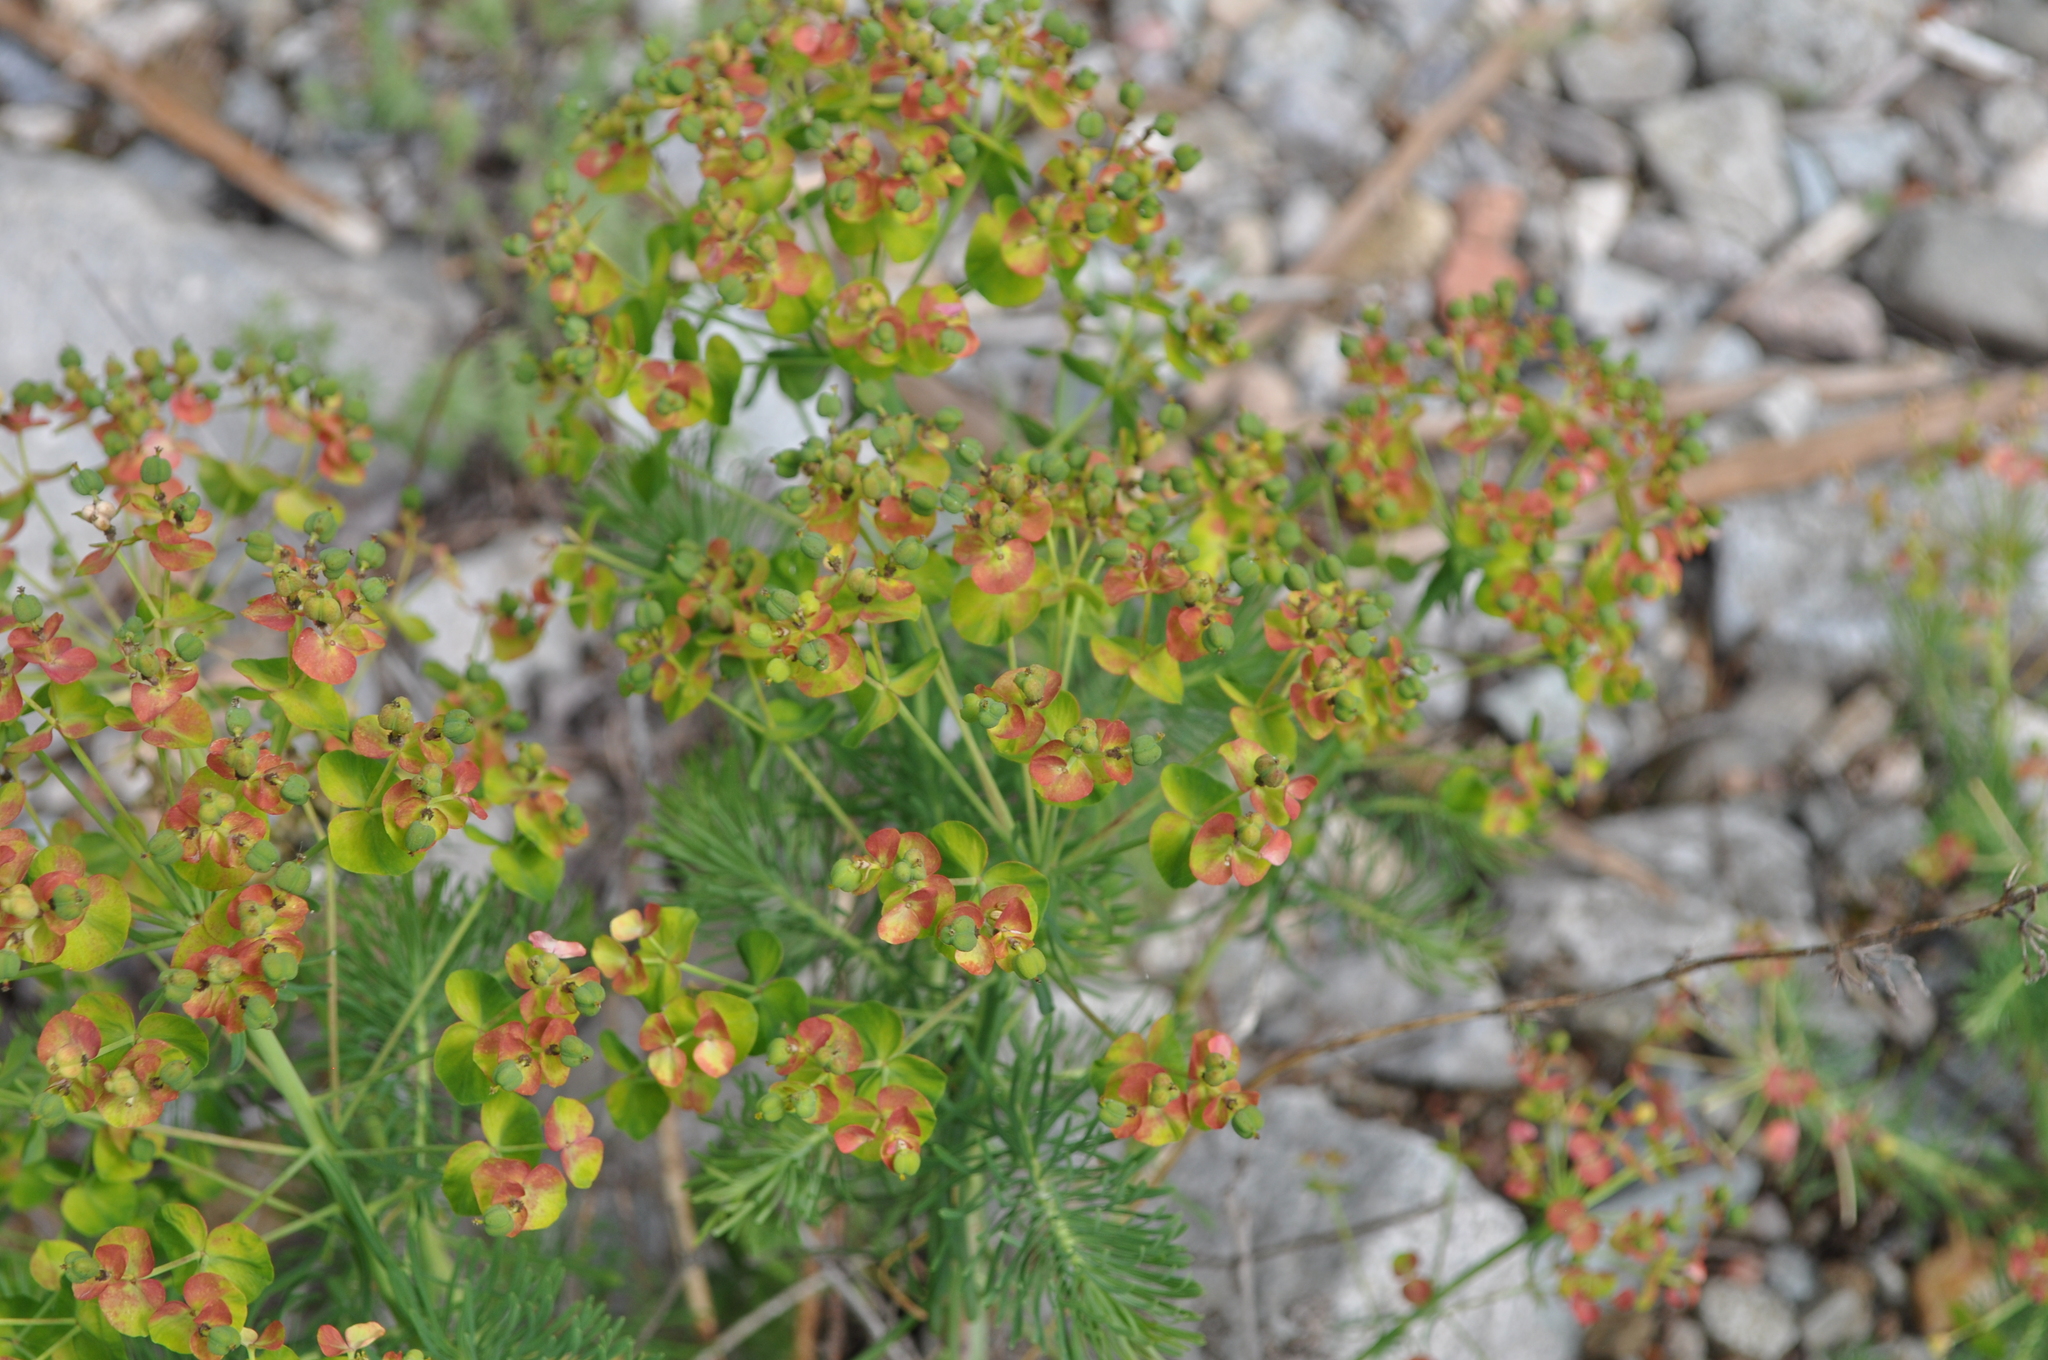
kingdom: Plantae
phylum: Tracheophyta
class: Magnoliopsida
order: Malpighiales
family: Euphorbiaceae
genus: Euphorbia
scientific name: Euphorbia cyparissias
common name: Cypress spurge
